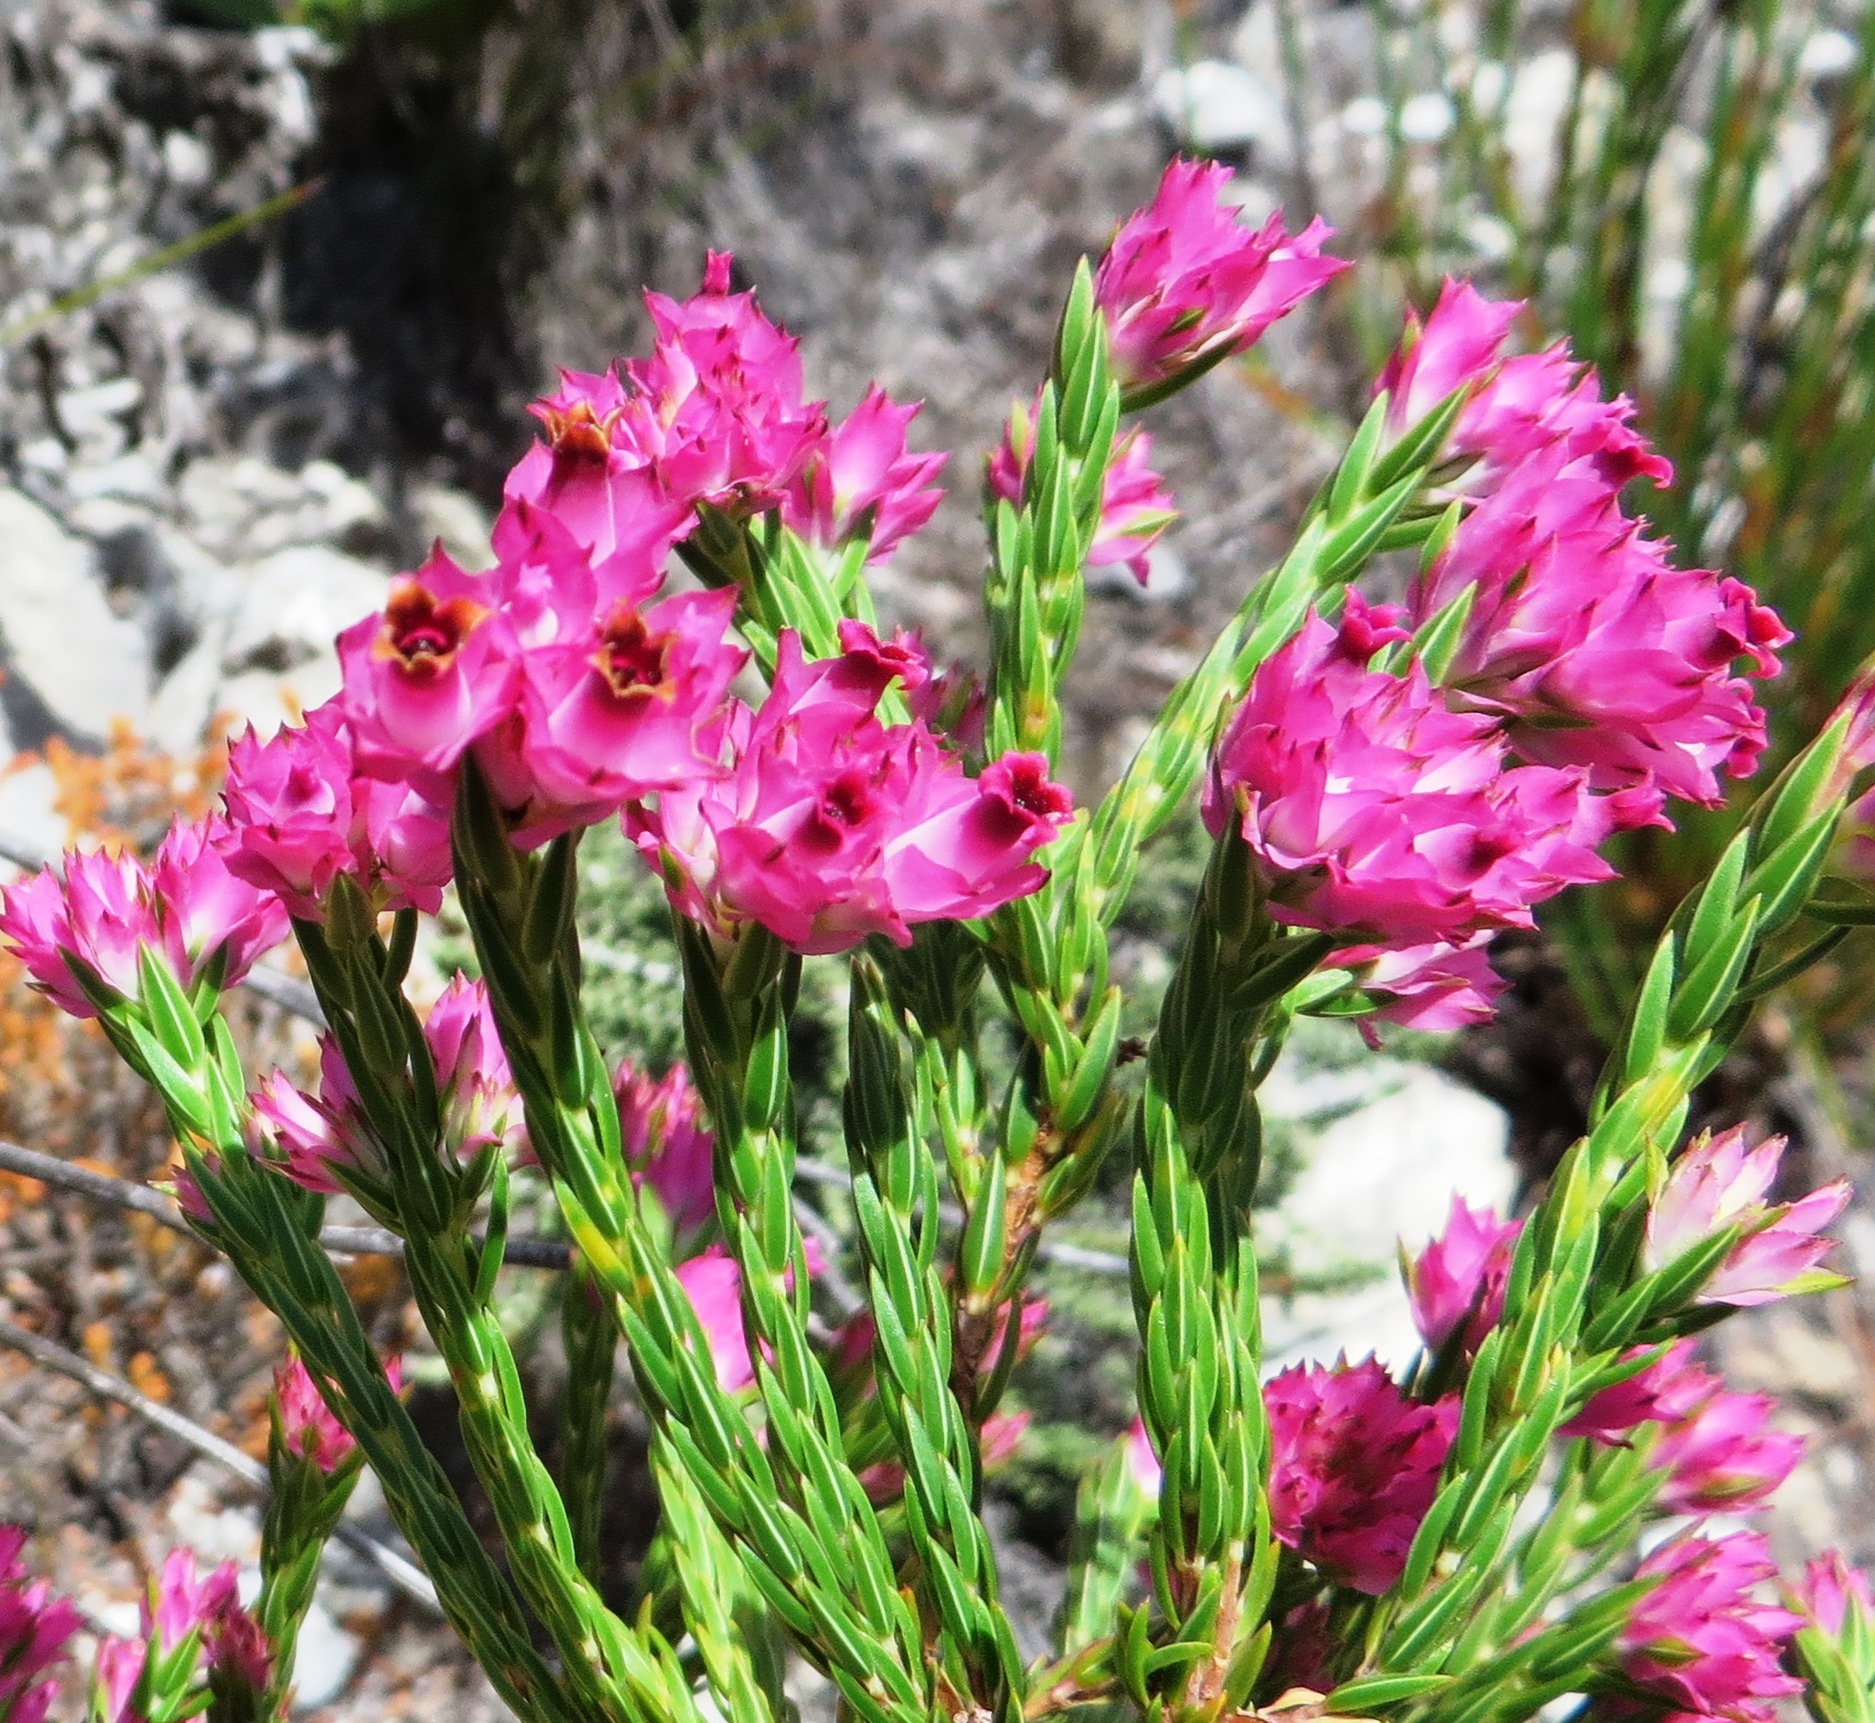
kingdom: Plantae
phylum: Tracheophyta
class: Magnoliopsida
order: Ericales
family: Ericaceae
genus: Erica
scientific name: Erica corifolia
